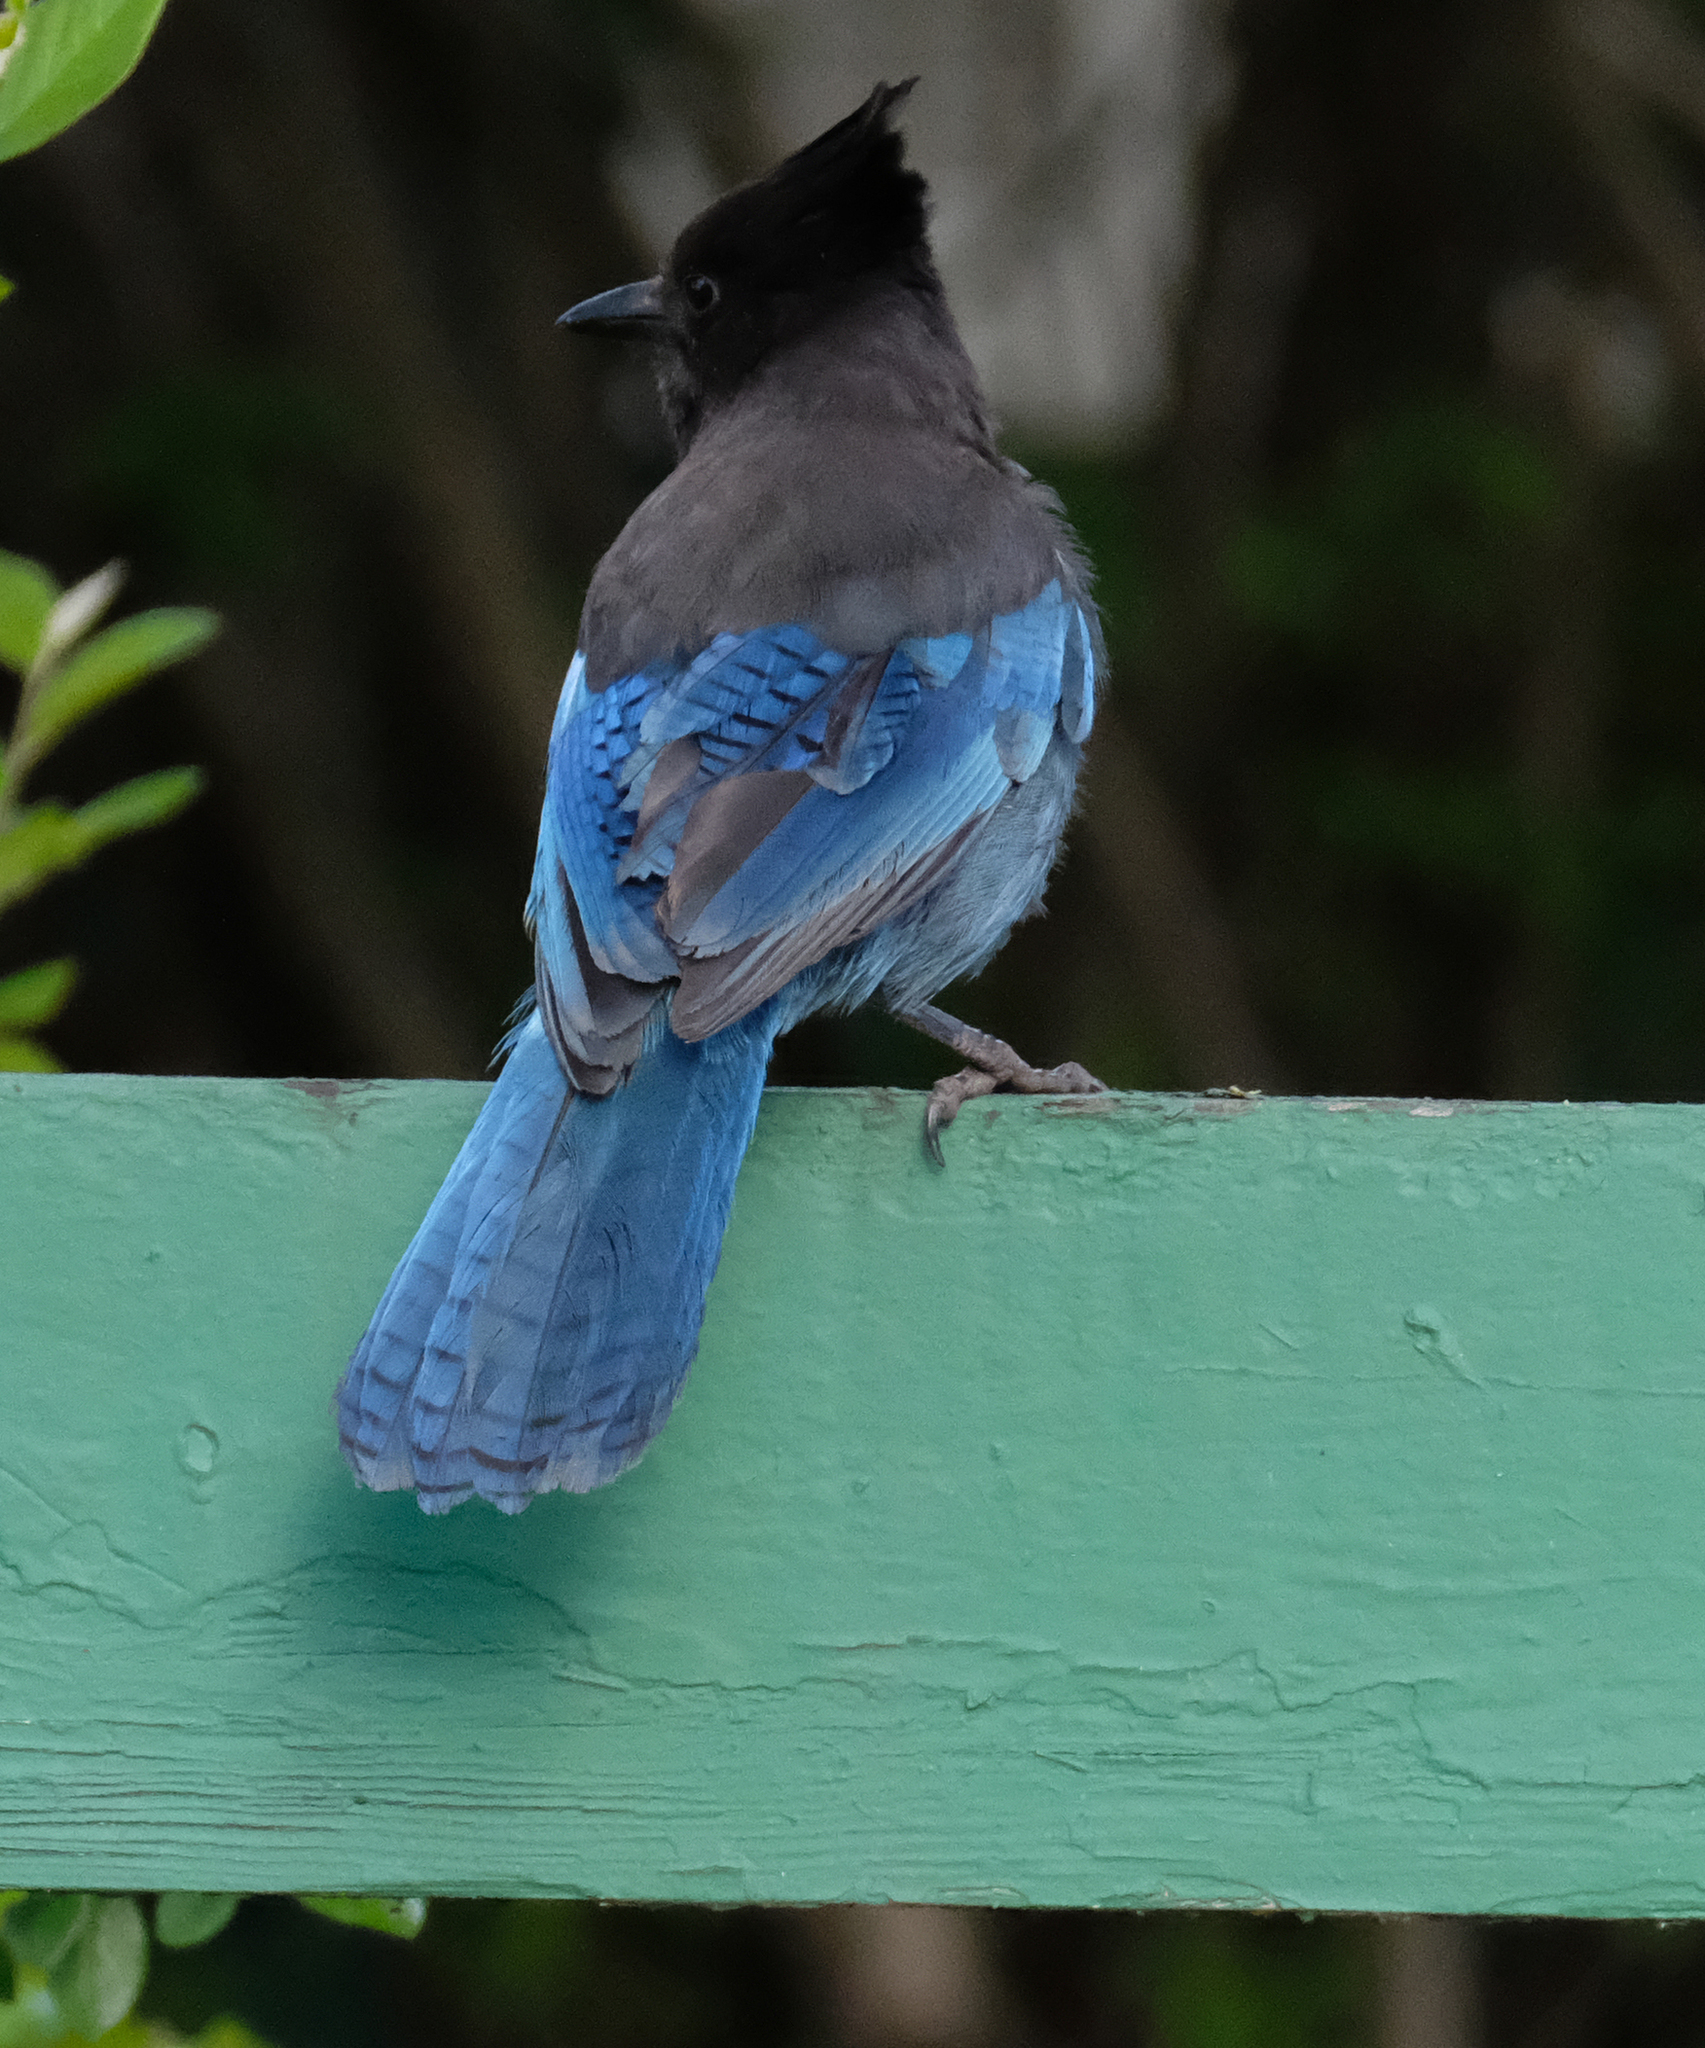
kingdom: Animalia
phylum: Chordata
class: Aves
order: Passeriformes
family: Corvidae
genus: Cyanocitta
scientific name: Cyanocitta stelleri
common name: Steller's jay
